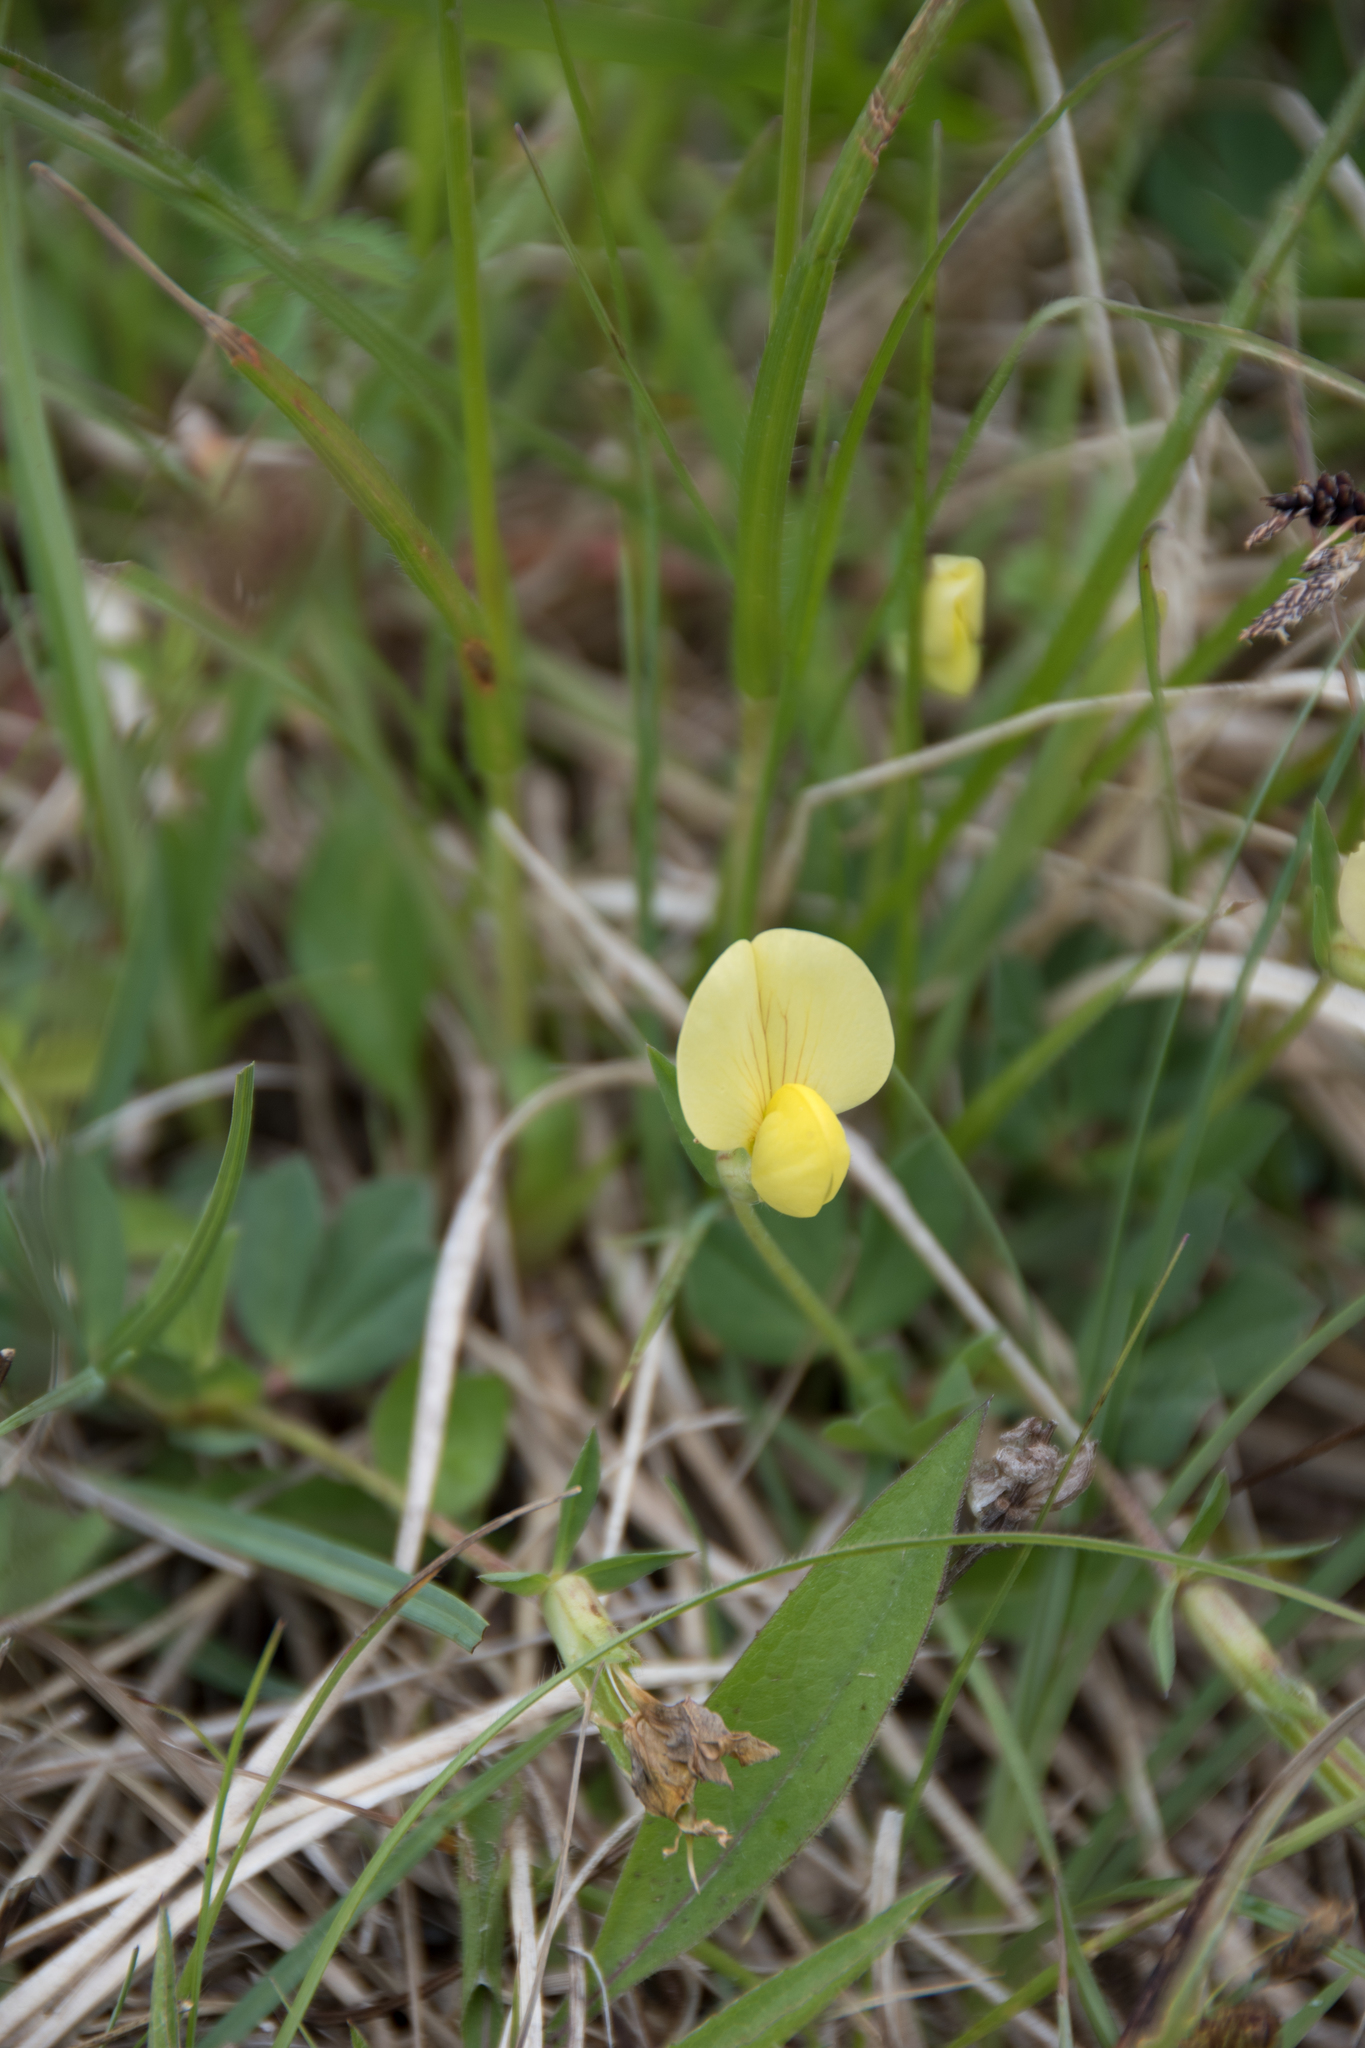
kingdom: Plantae
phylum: Tracheophyta
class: Magnoliopsida
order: Fabales
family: Fabaceae
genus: Lotus
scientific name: Lotus maritimus
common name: Dragon's-teeth
